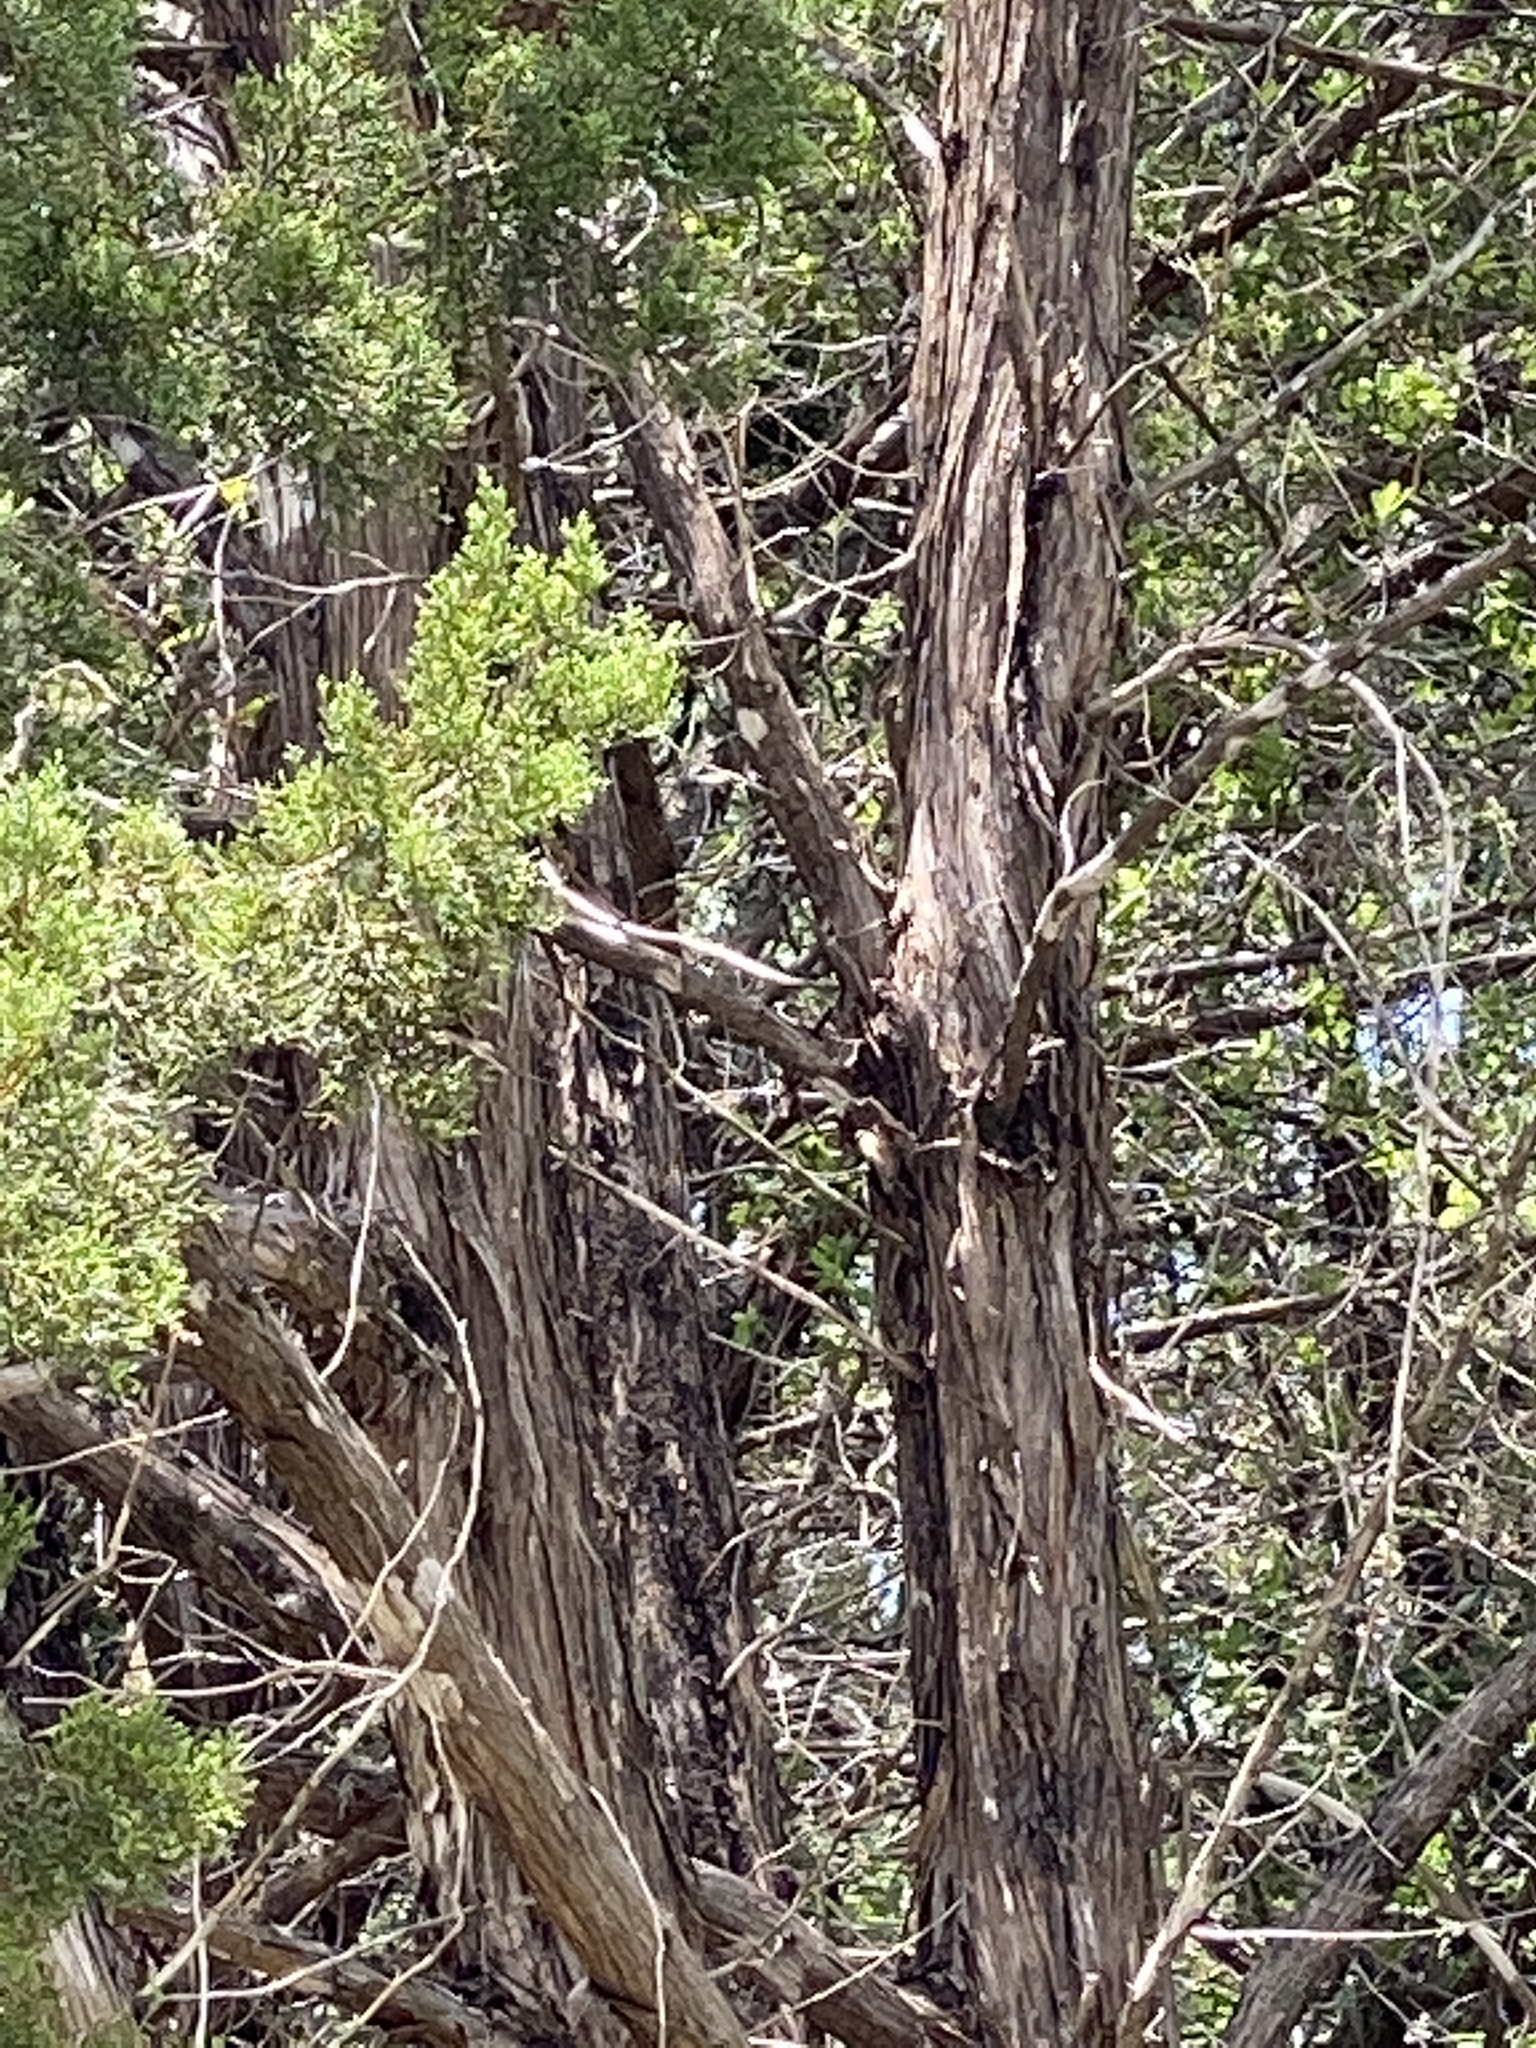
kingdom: Plantae
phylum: Tracheophyta
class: Pinopsida
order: Pinales
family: Cupressaceae
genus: Juniperus
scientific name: Juniperus ashei
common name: Mexican juniper
